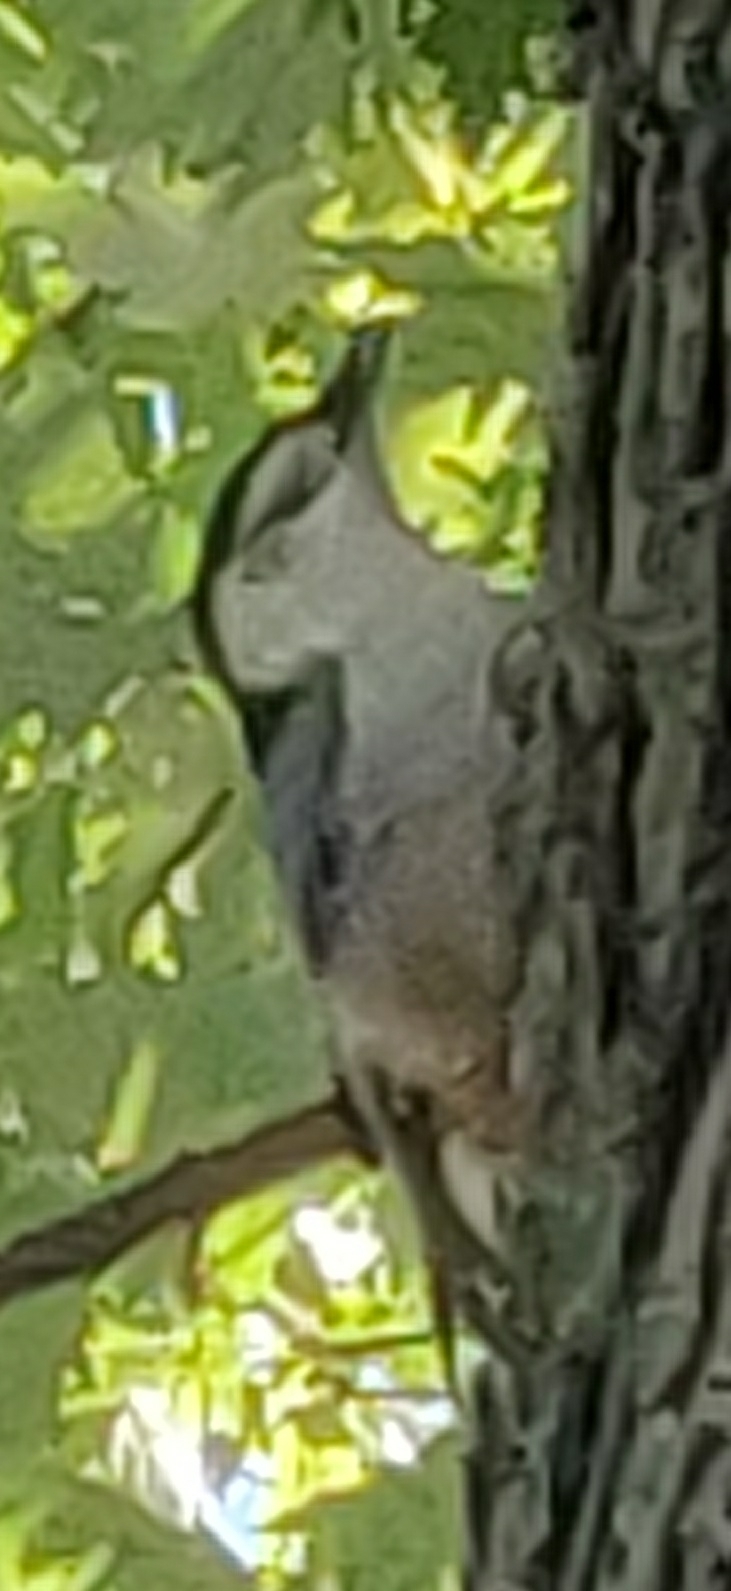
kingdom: Animalia
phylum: Chordata
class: Aves
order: Passeriformes
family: Sittidae
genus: Sitta
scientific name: Sitta carolinensis
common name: White-breasted nuthatch
